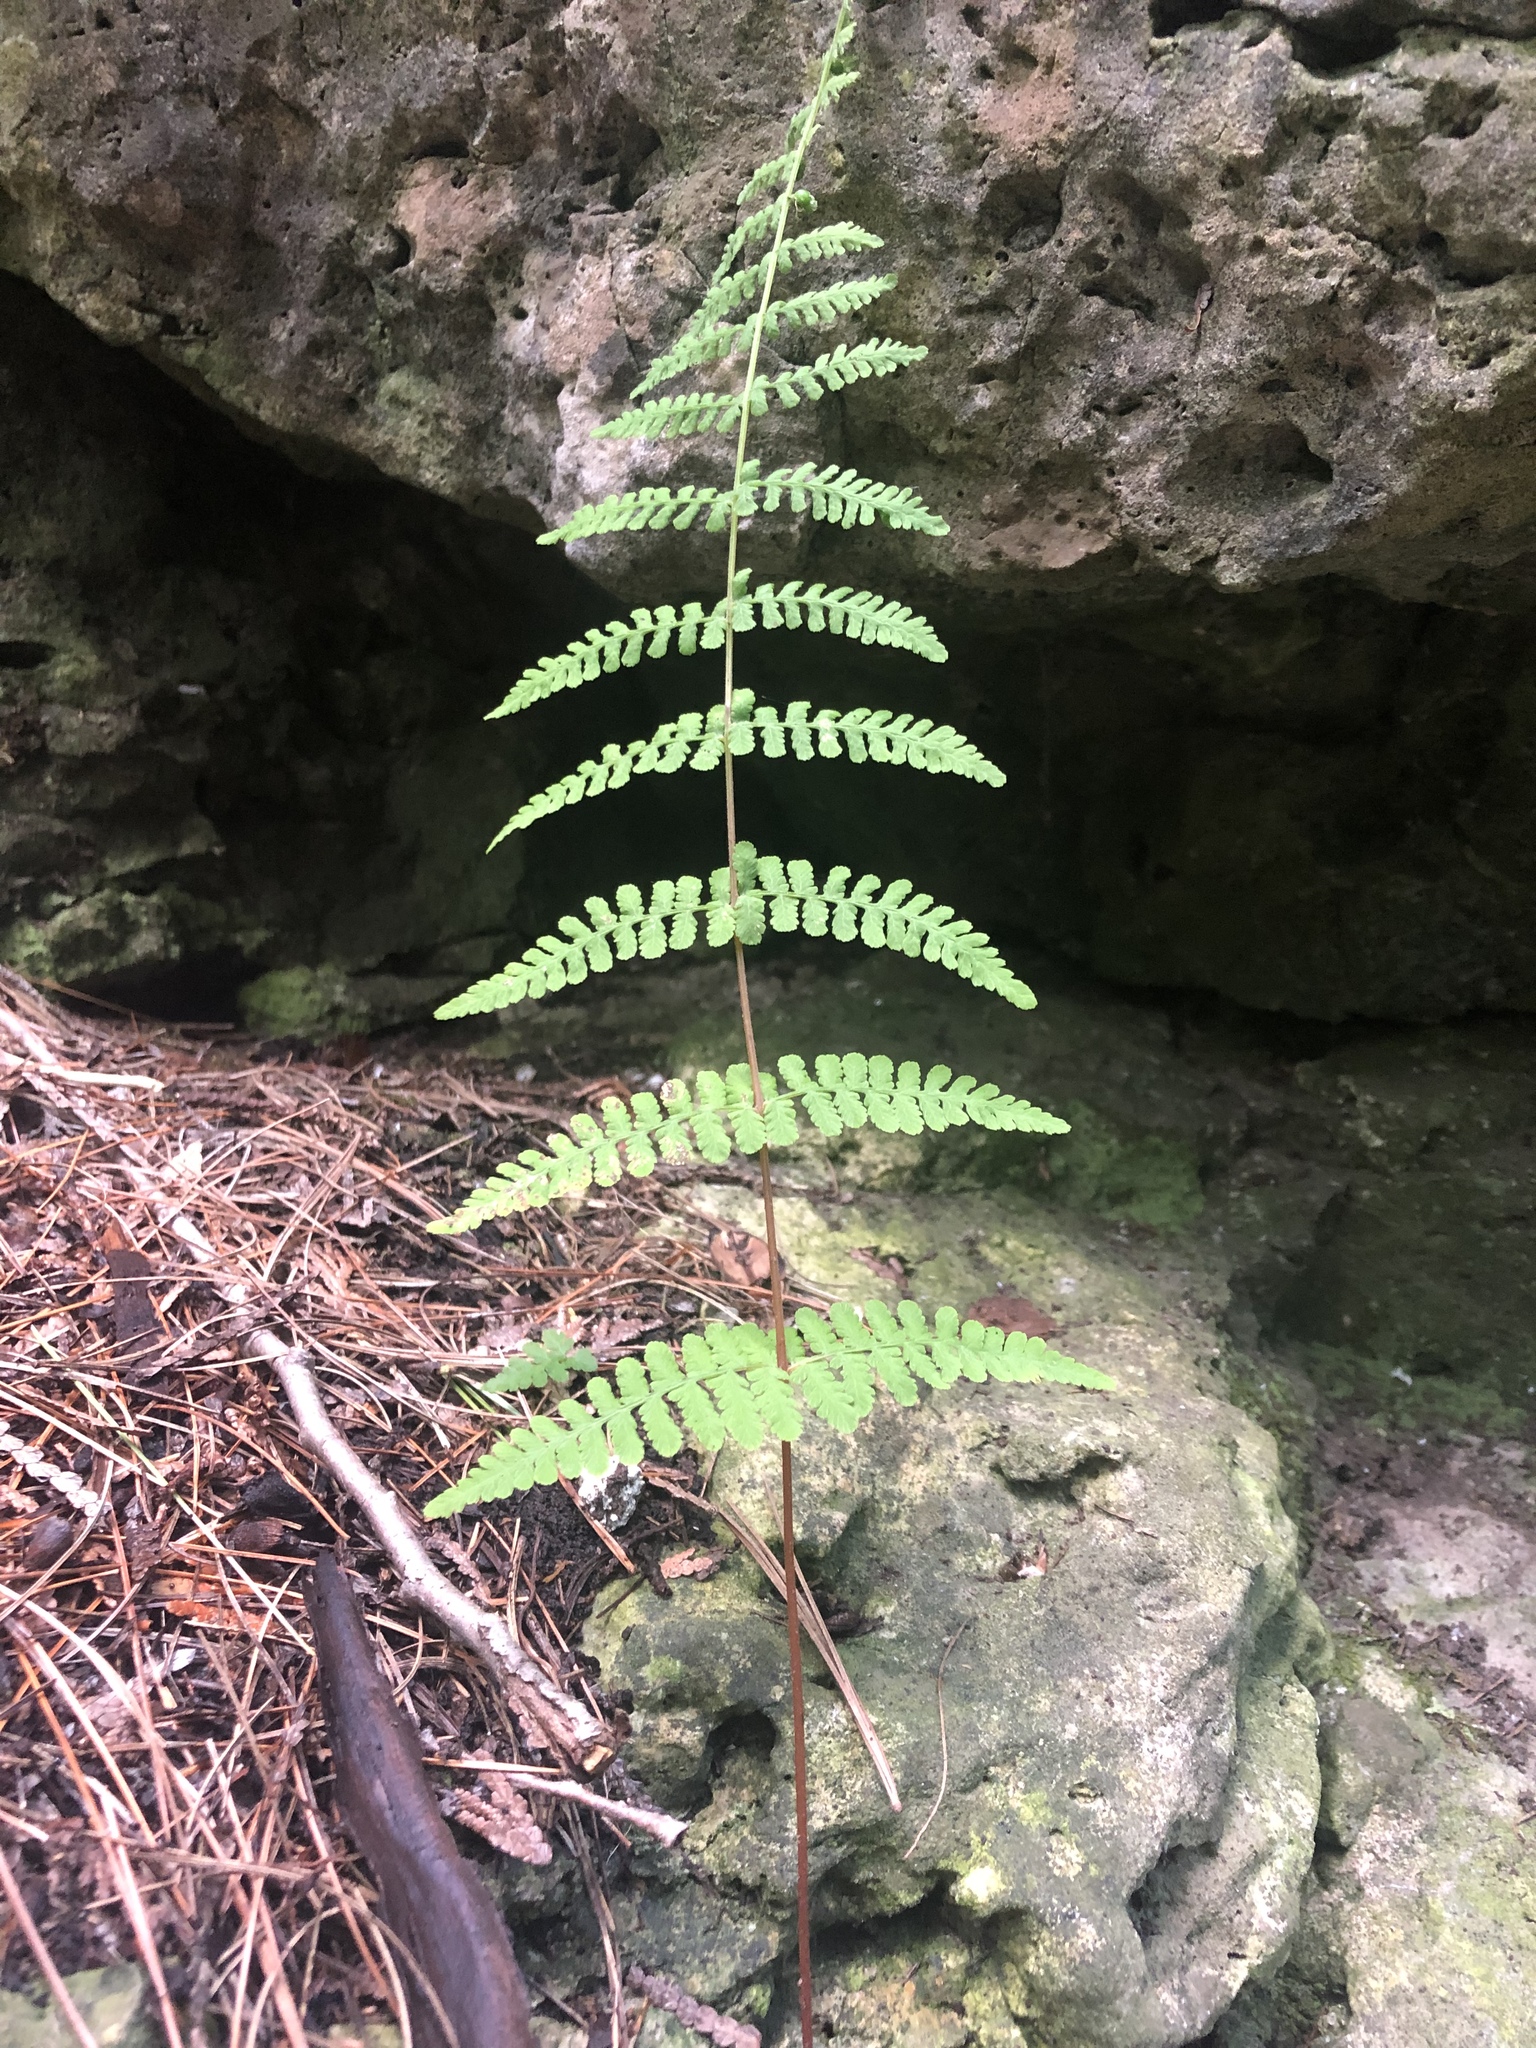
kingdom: Plantae
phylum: Tracheophyta
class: Polypodiopsida
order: Polypodiales
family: Cystopteridaceae
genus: Cystopteris
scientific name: Cystopteris bulbifera
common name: Bulblet bladder fern
